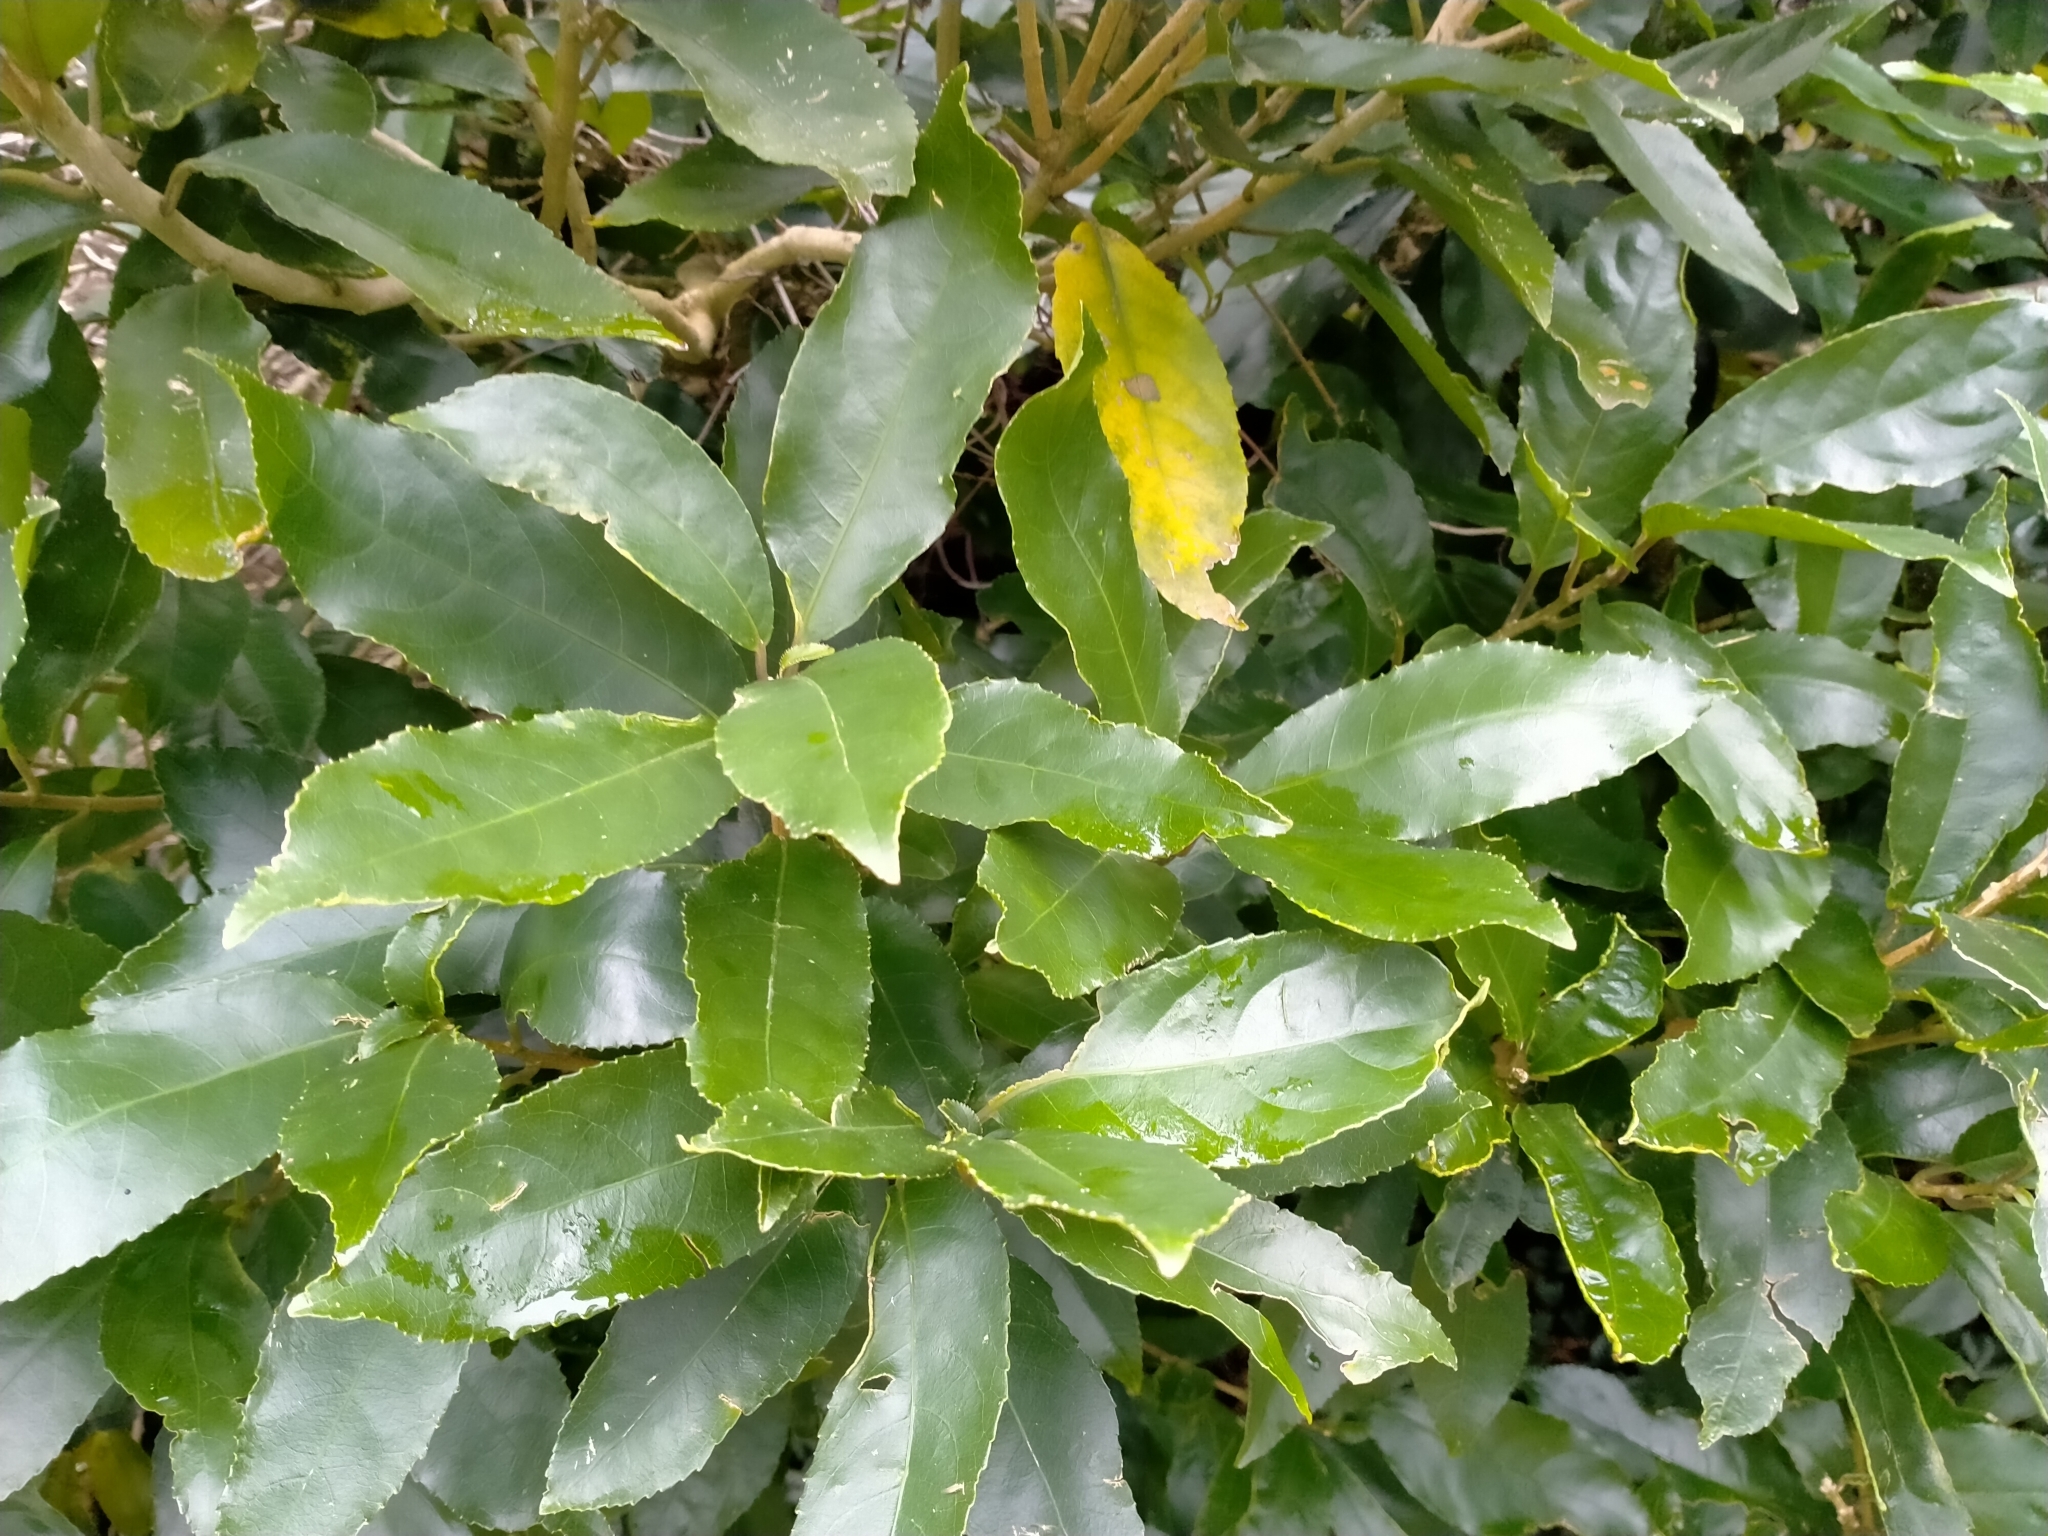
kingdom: Plantae
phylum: Tracheophyta
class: Magnoliopsida
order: Malpighiales
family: Violaceae
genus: Melicytus
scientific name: Melicytus ramiflorus
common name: Mahoe
